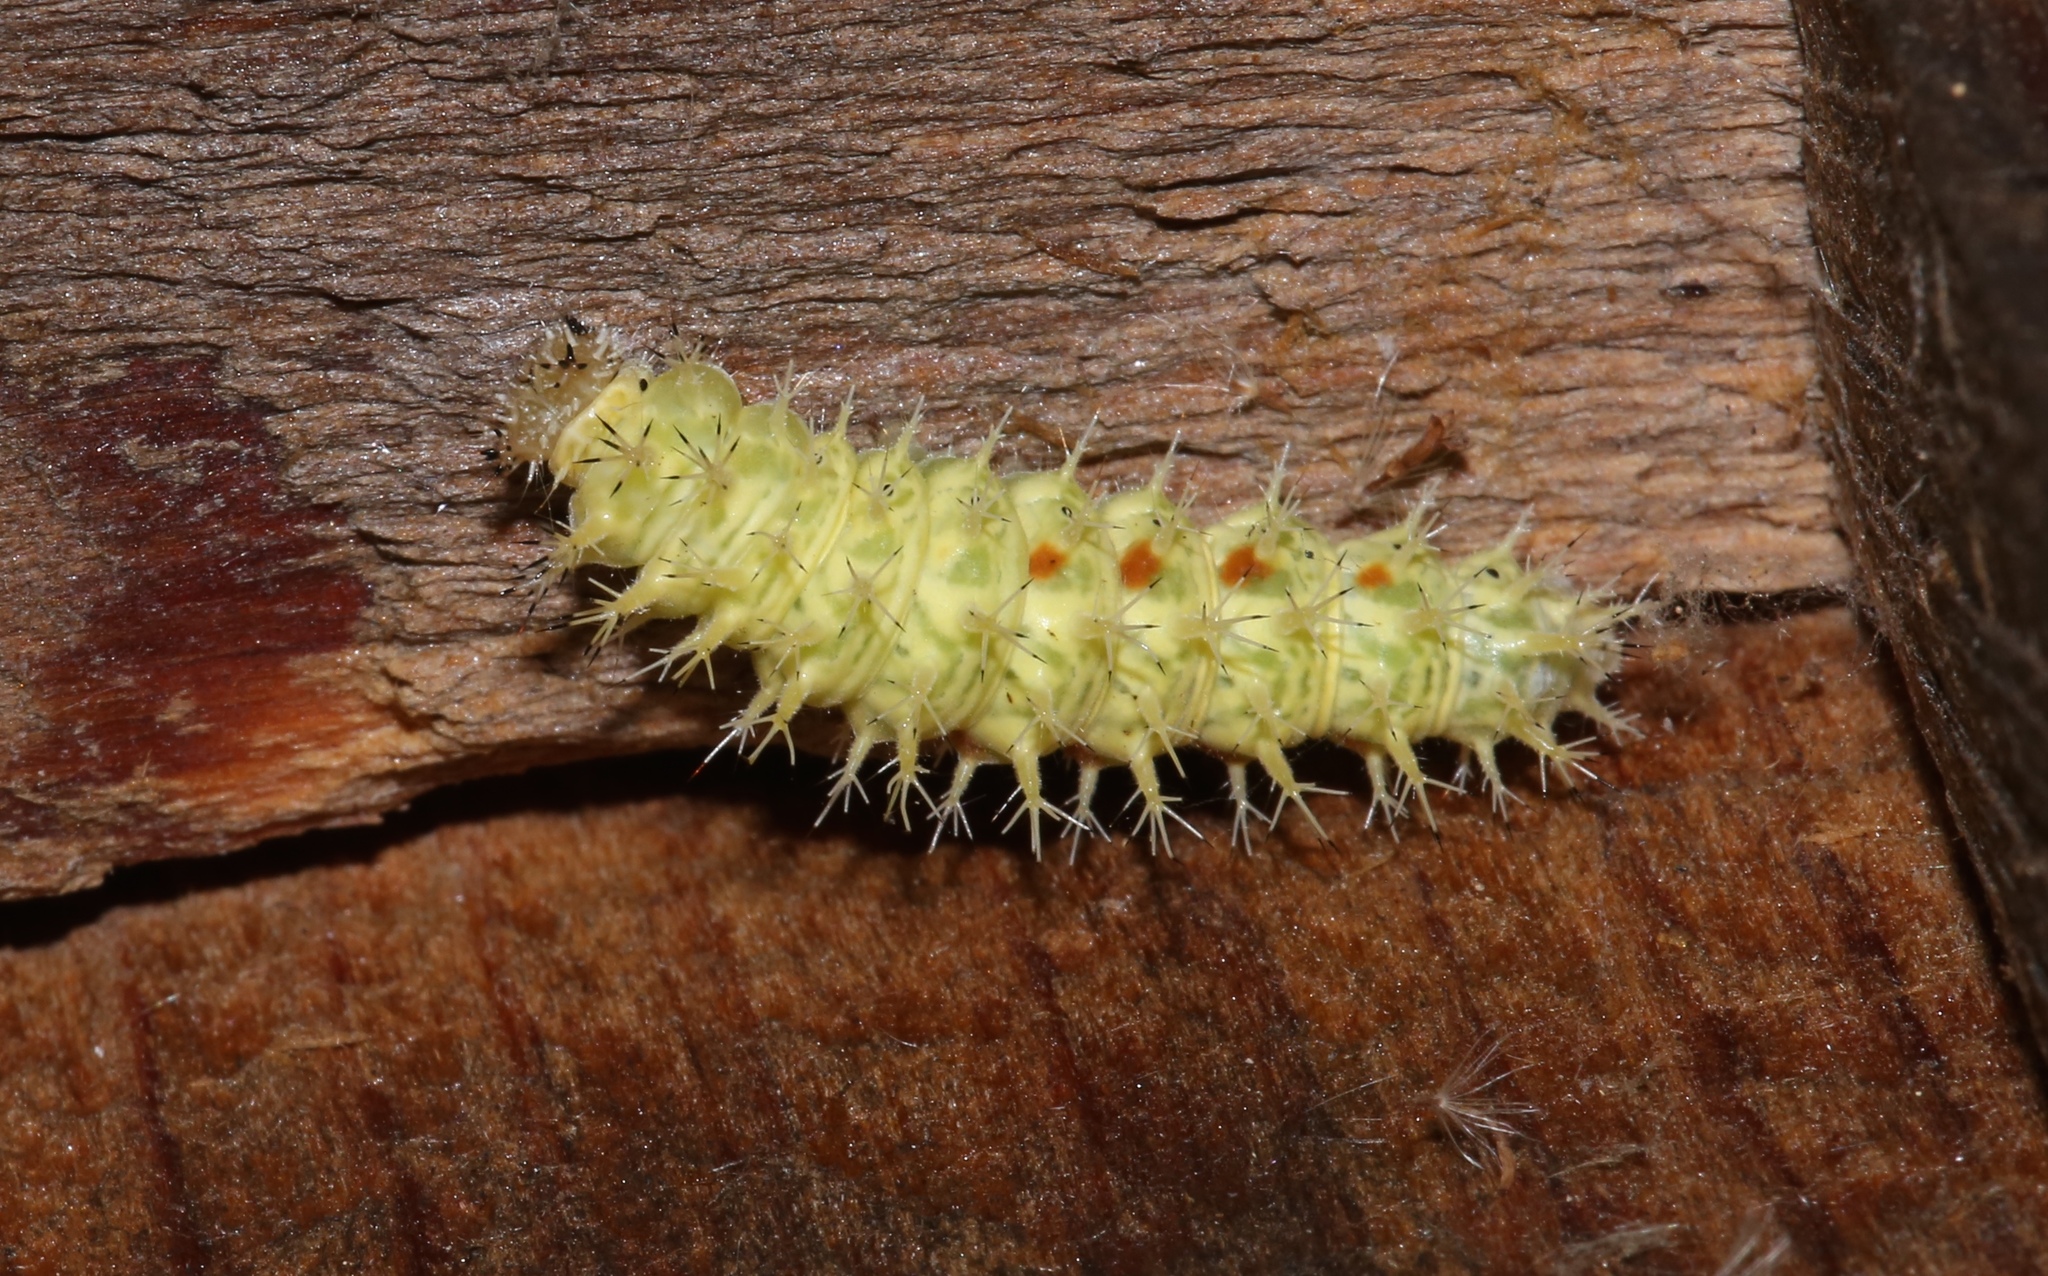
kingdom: Animalia
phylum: Arthropoda
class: Insecta
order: Lepidoptera
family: Nymphalidae
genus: Polygonia
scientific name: Polygonia comma
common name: Eastern comma
